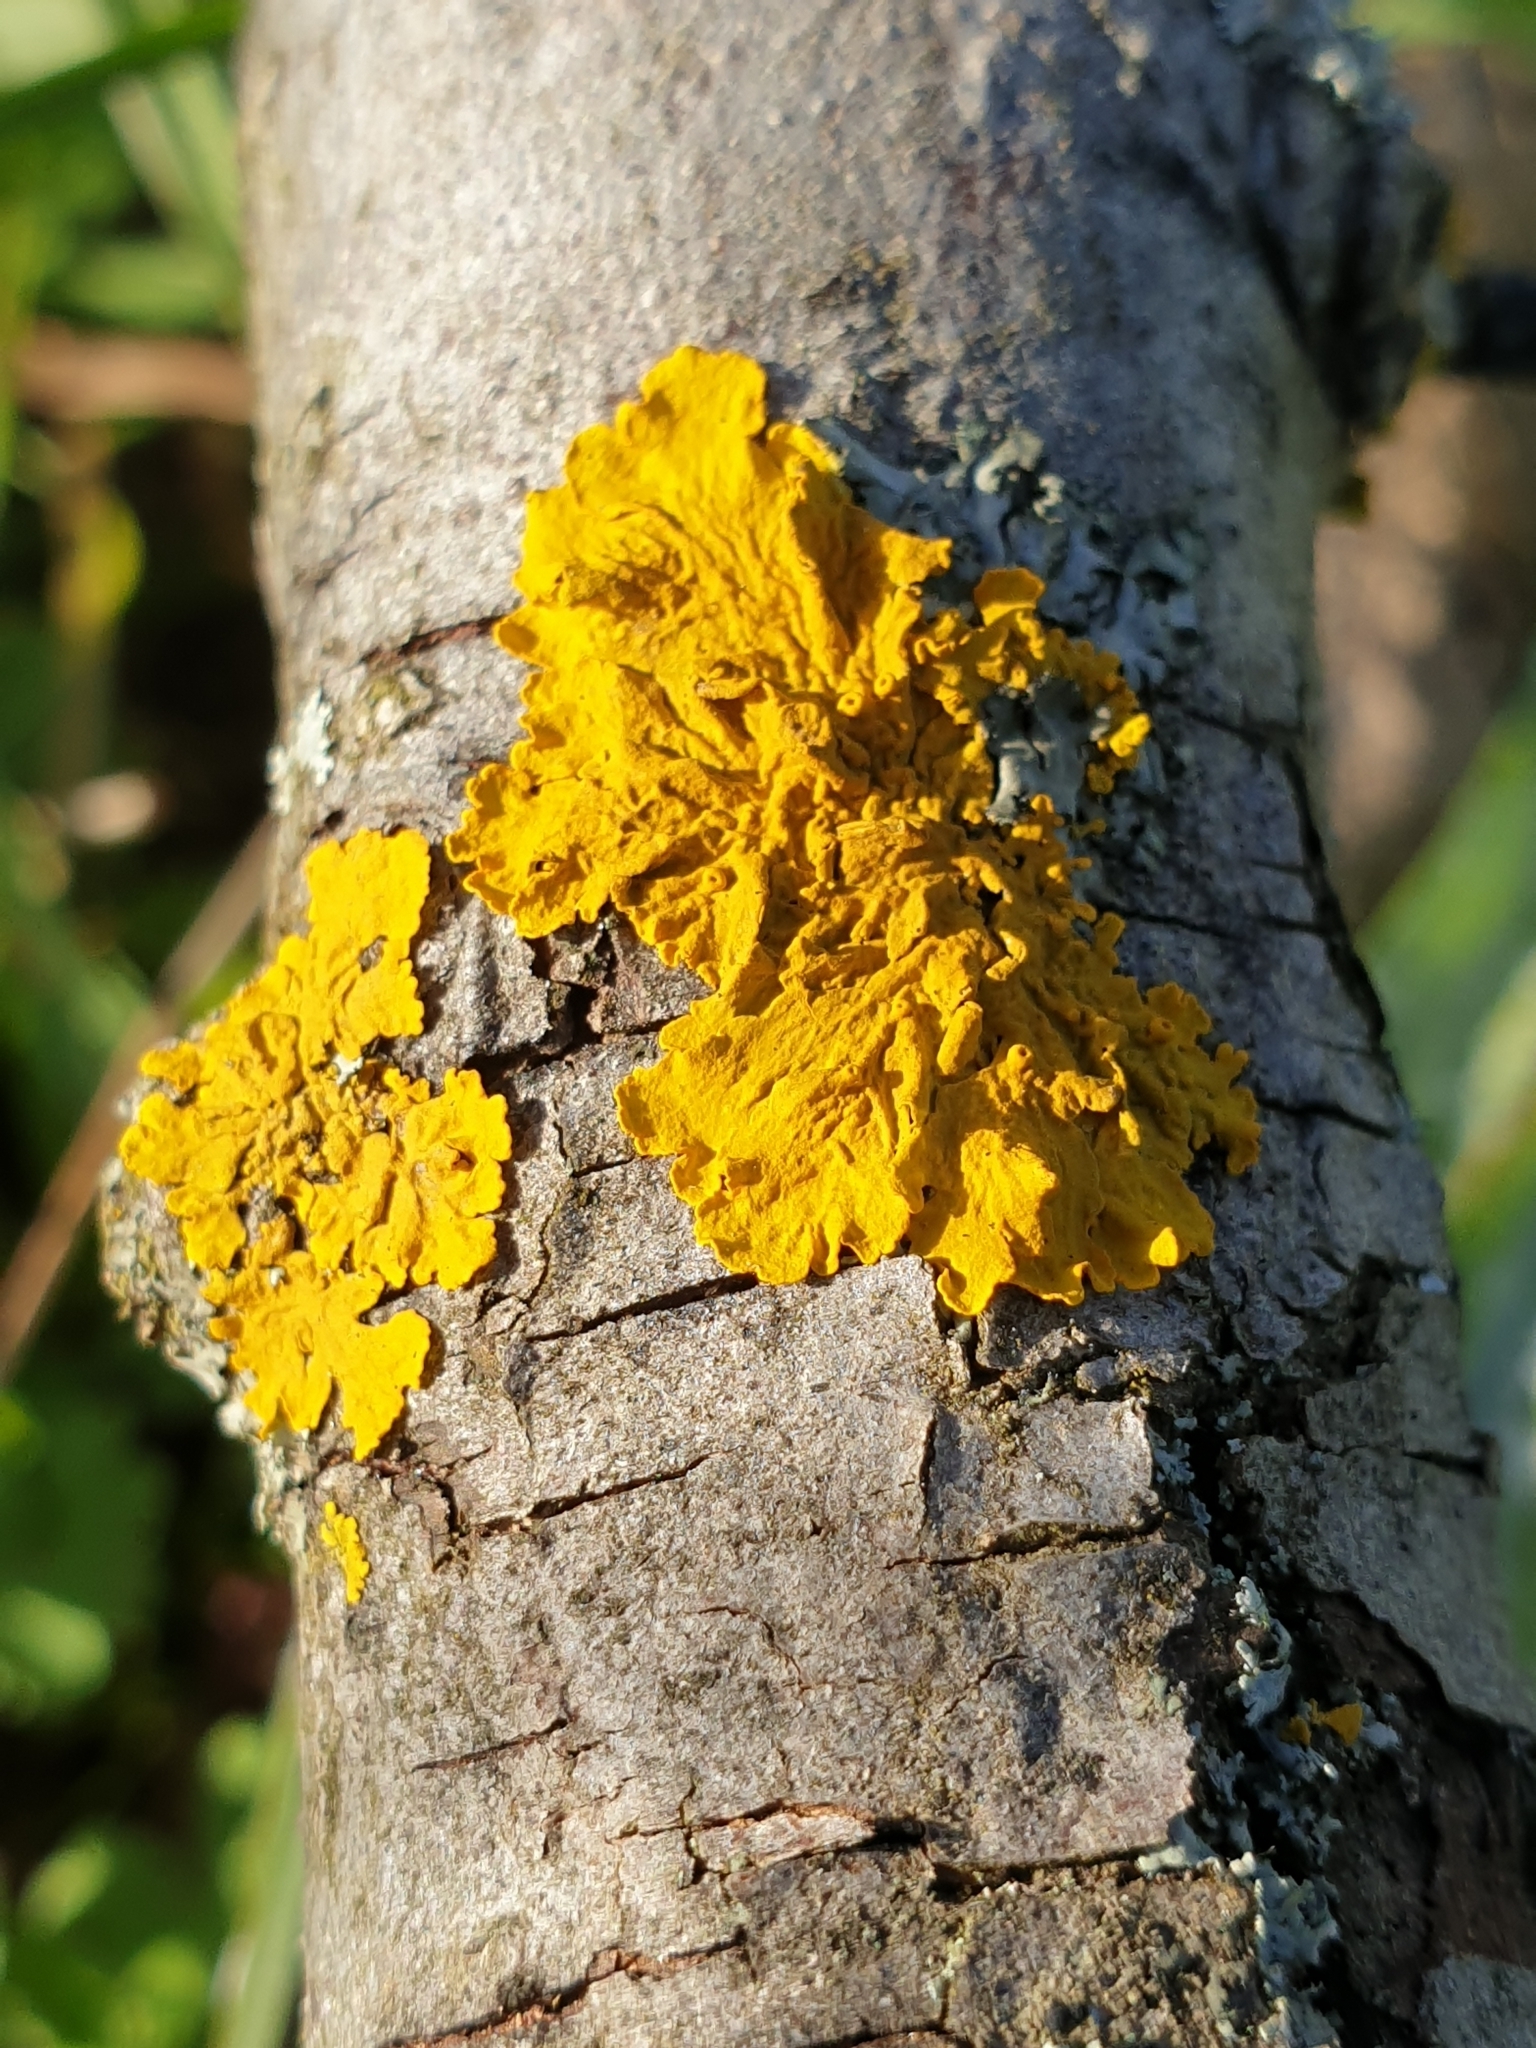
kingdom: Fungi
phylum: Ascomycota
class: Lecanoromycetes
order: Teloschistales
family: Teloschistaceae
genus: Xanthoria
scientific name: Xanthoria parietina
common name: Common orange lichen
